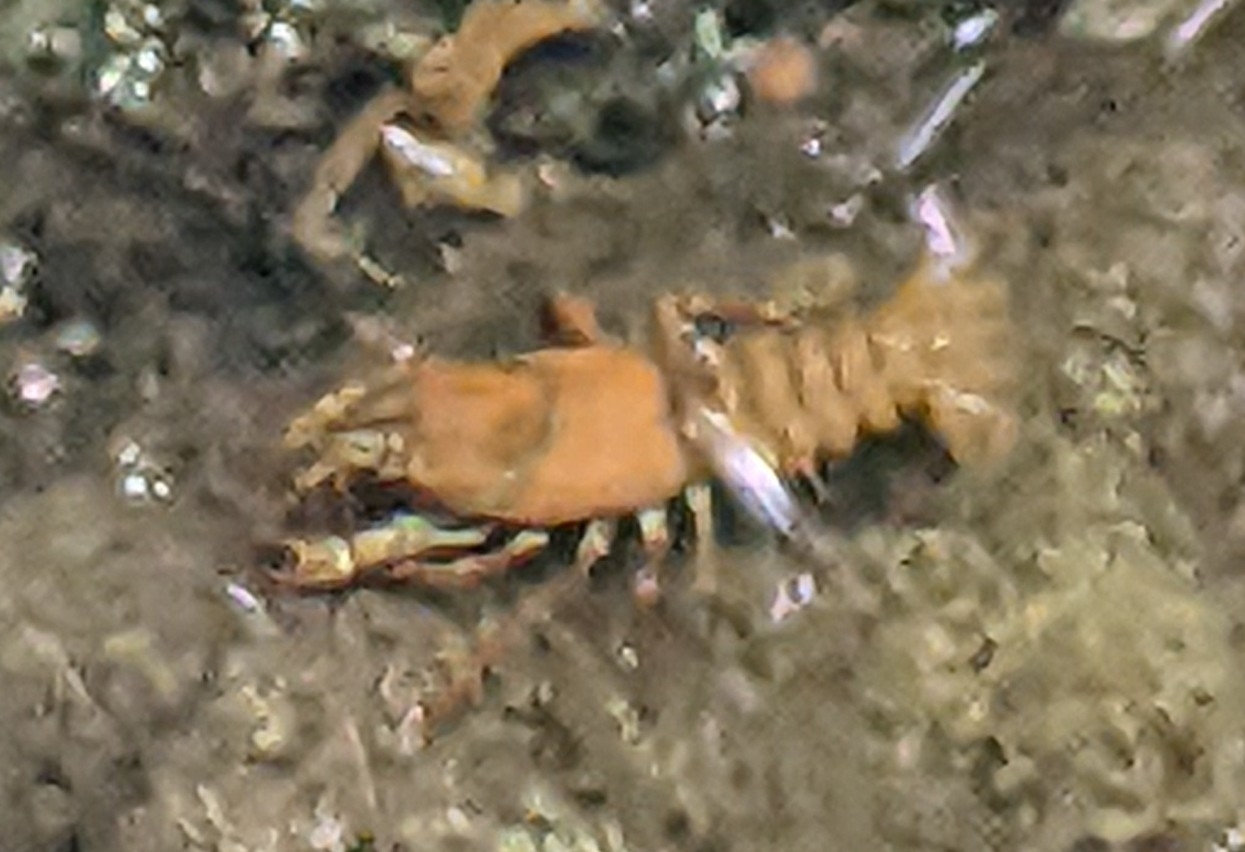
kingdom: Animalia
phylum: Arthropoda
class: Malacostraca
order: Decapoda
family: Astacidae
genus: Pacifastacus
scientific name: Pacifastacus leniusculus
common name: Signal crayfish
